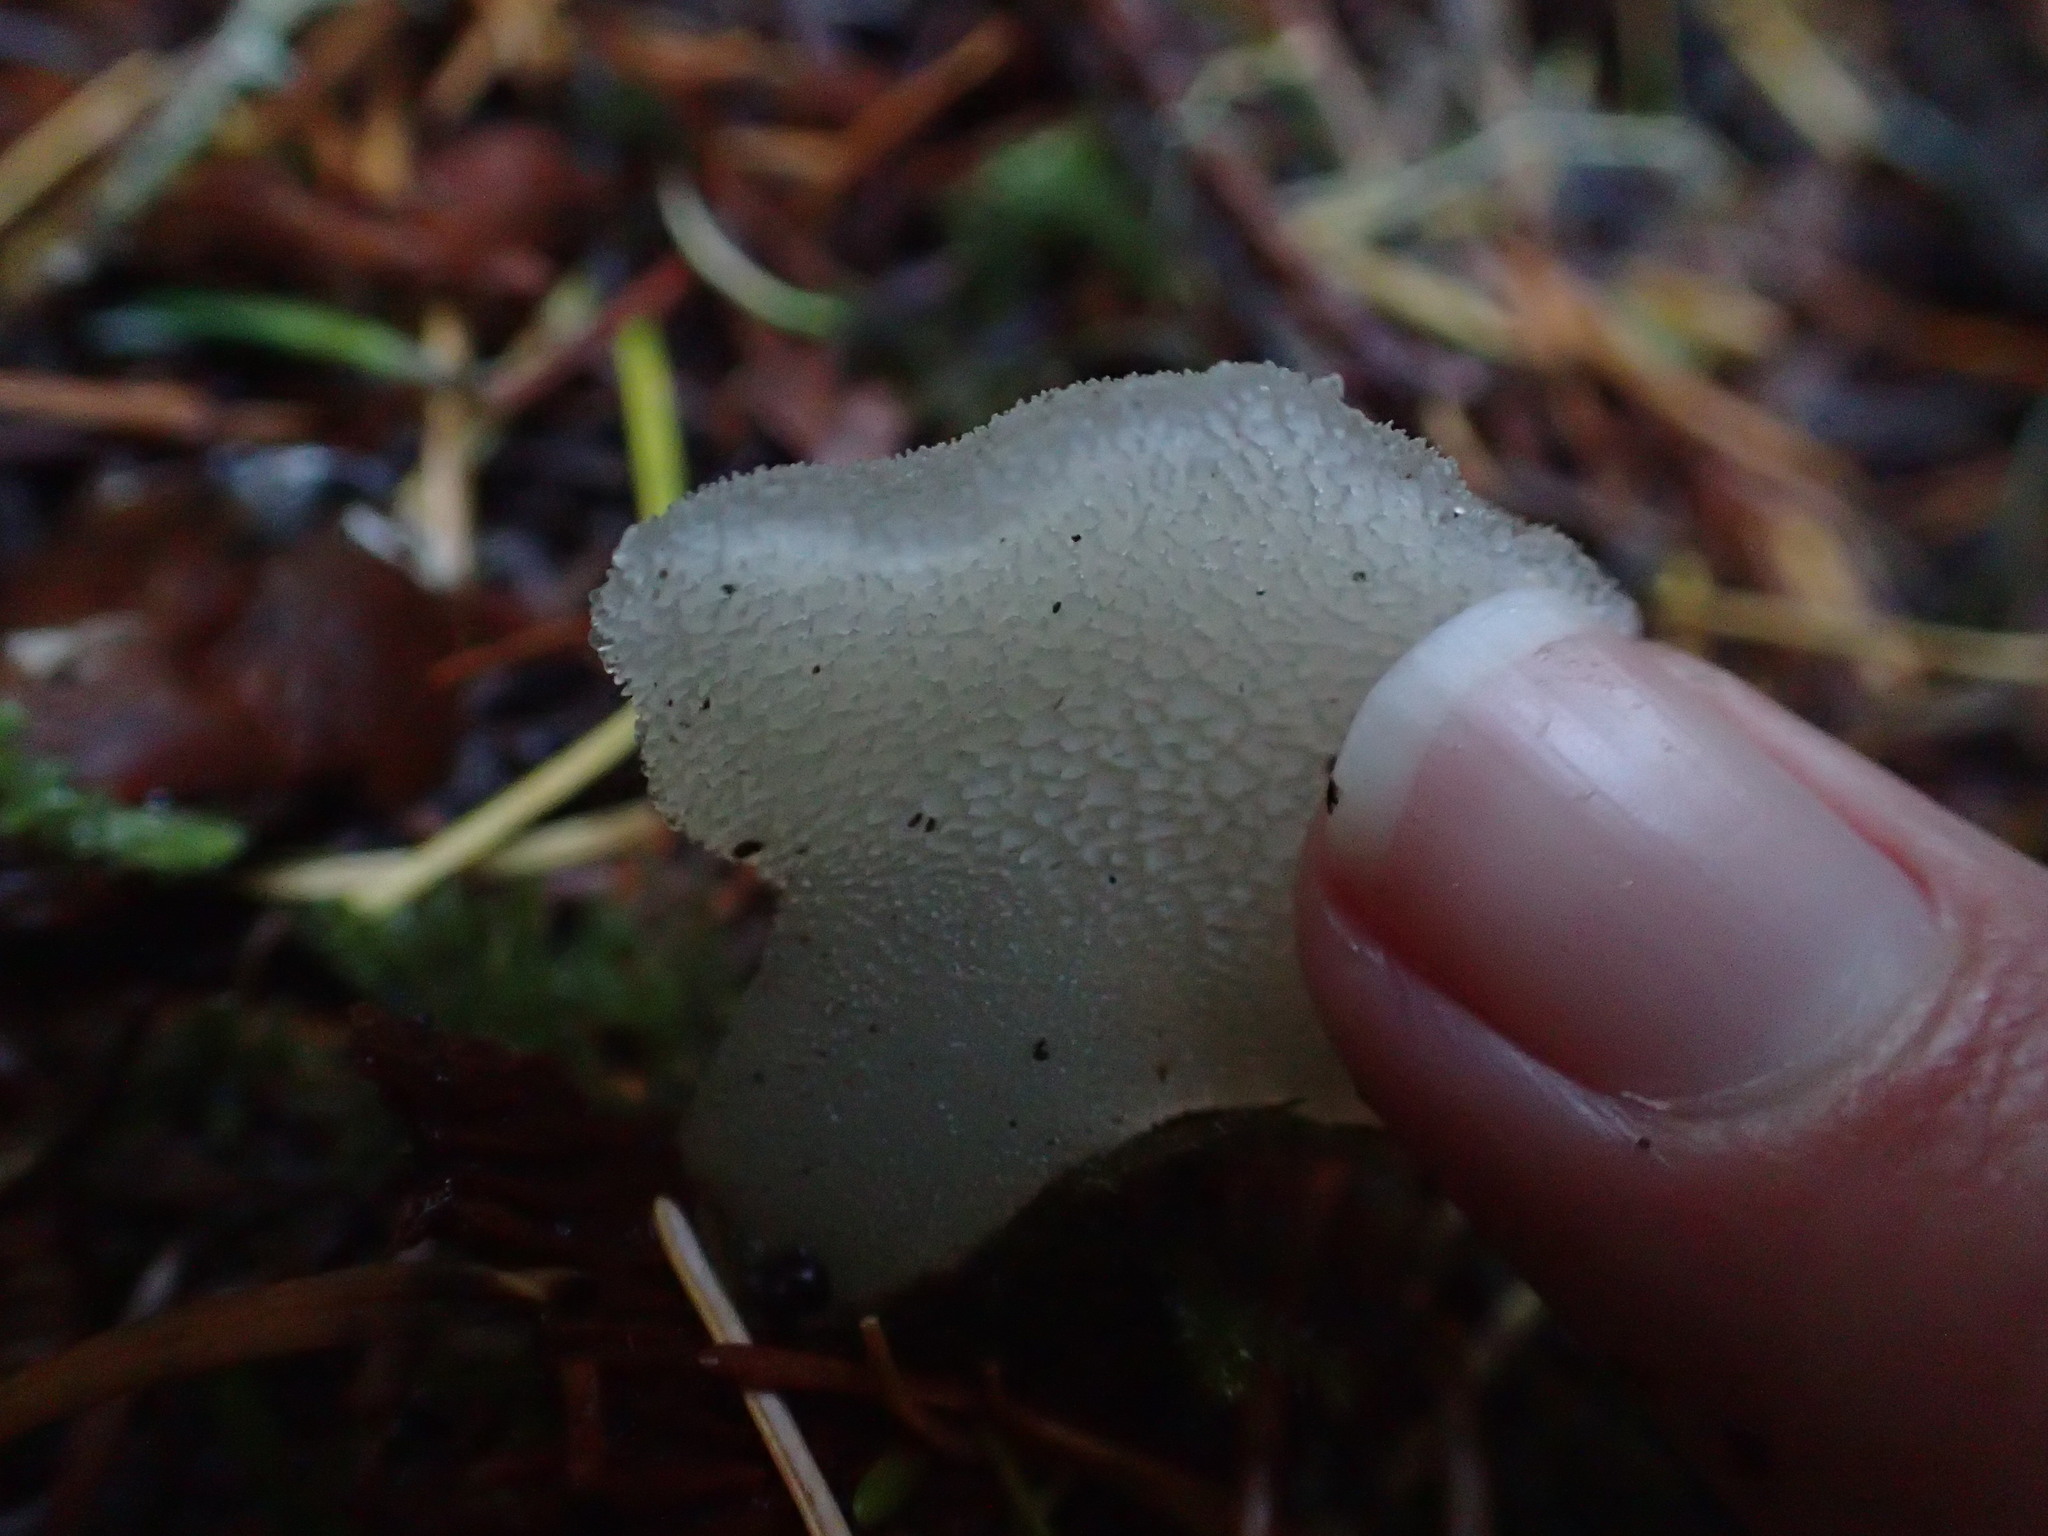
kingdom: Fungi
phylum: Basidiomycota
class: Agaricomycetes
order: Auriculariales
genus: Pseudohydnum
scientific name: Pseudohydnum gelatinosum
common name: Jelly tongue
